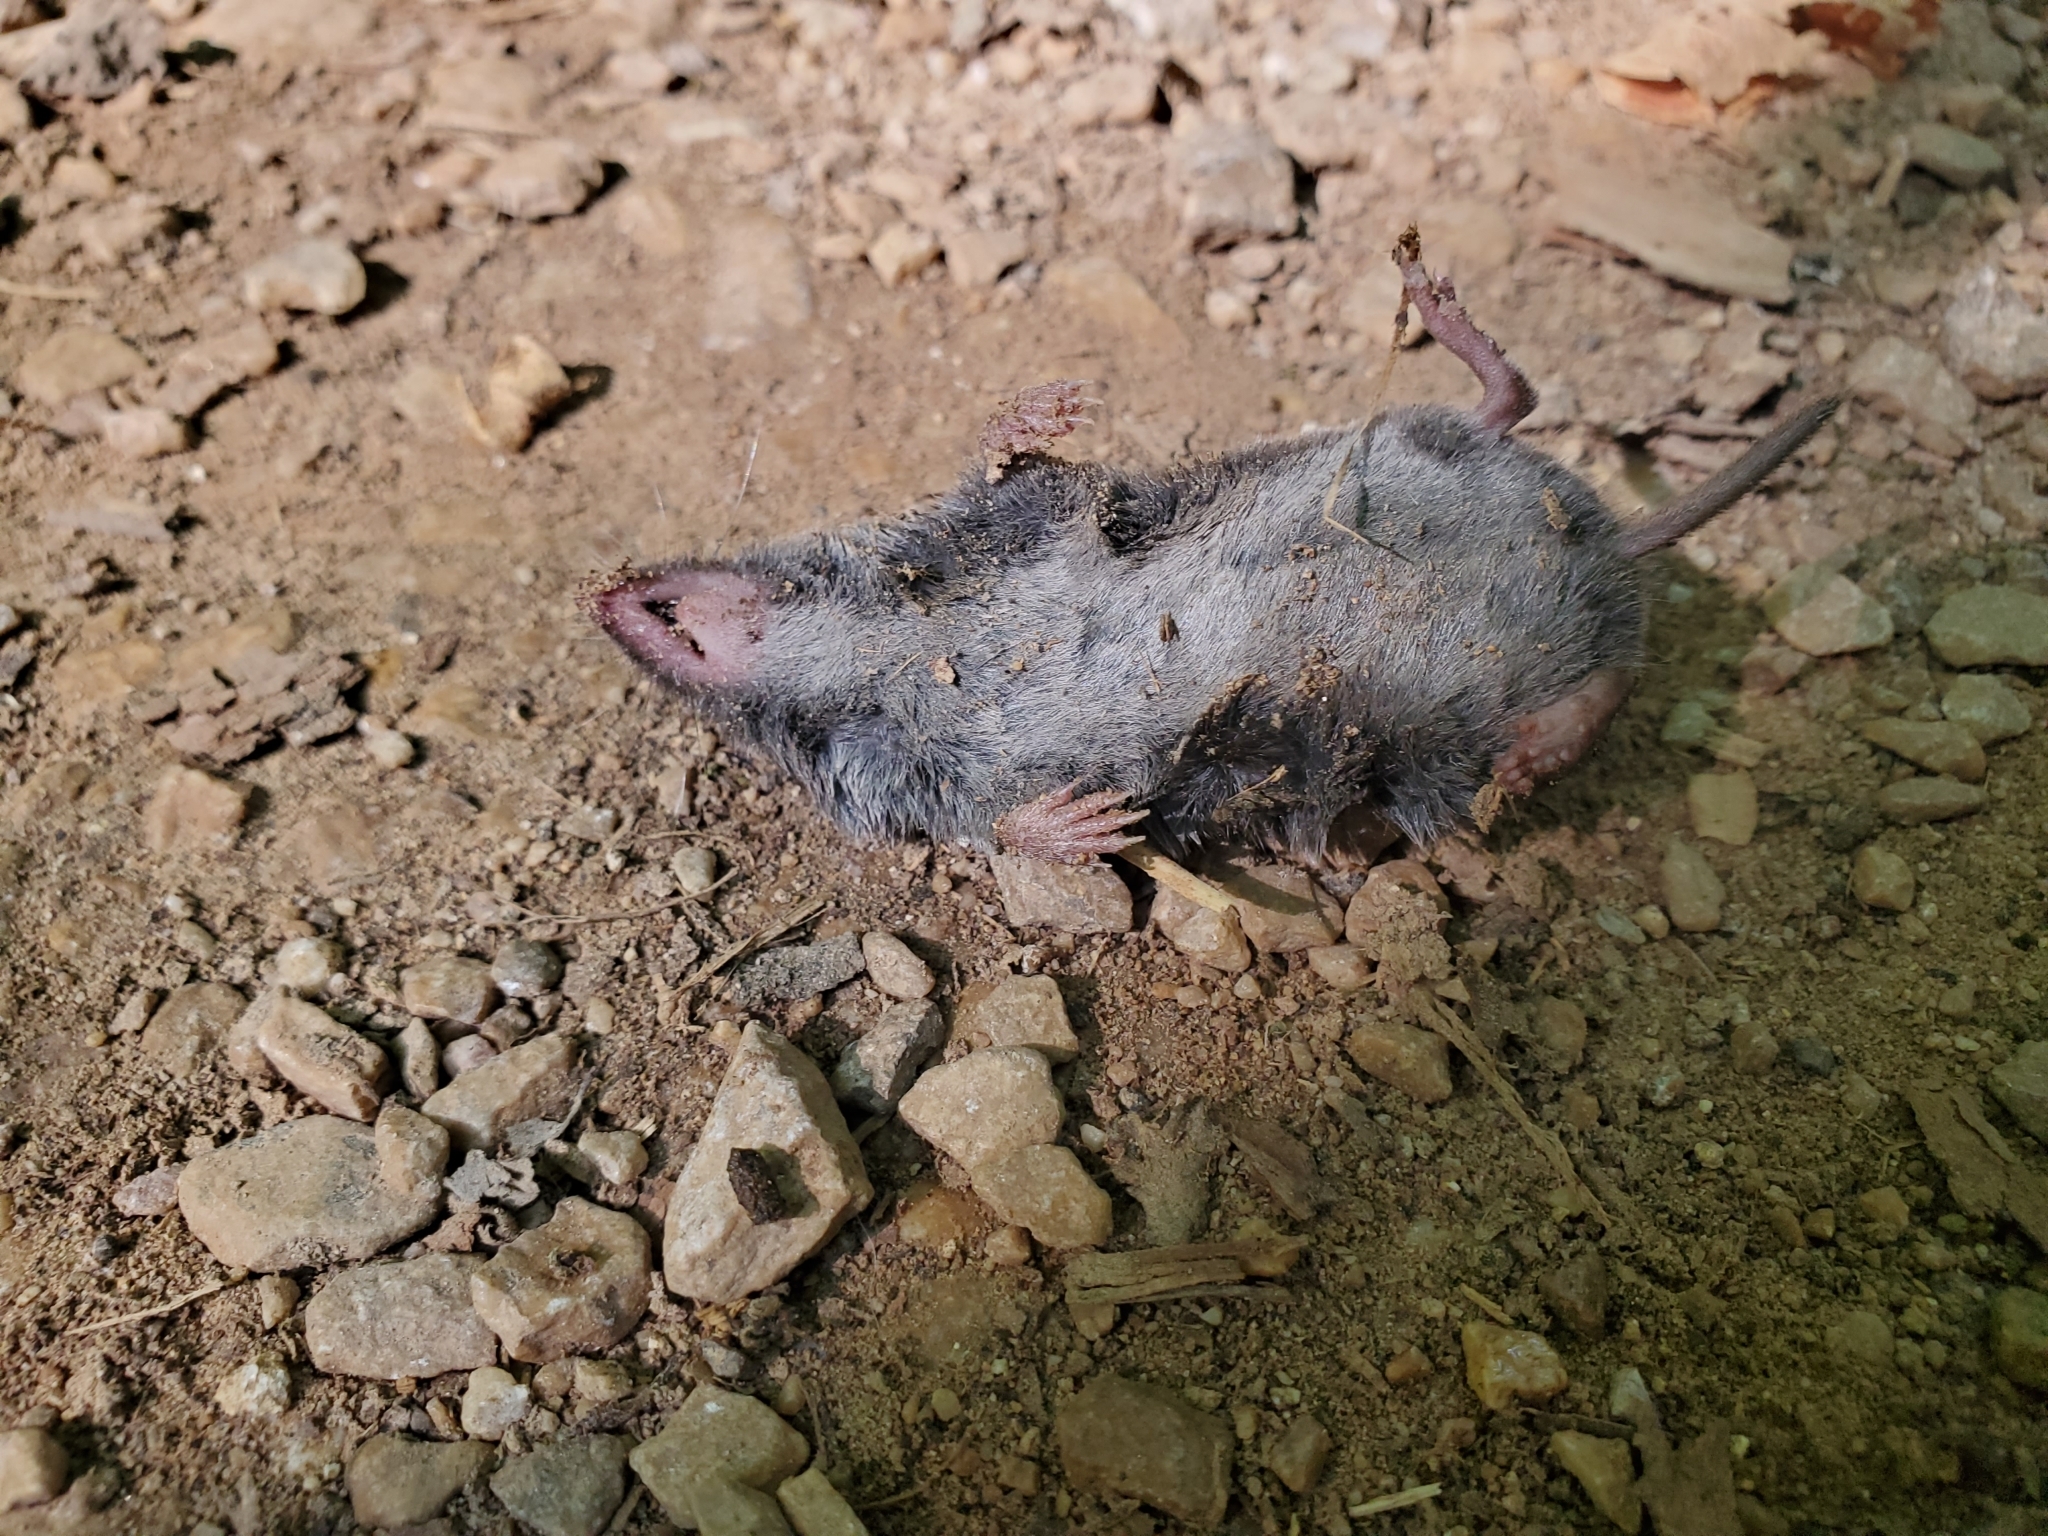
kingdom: Animalia
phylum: Chordata
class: Mammalia
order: Soricomorpha
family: Soricidae
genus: Blarina
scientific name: Blarina brevicauda
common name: Northern short-tailed shrew
